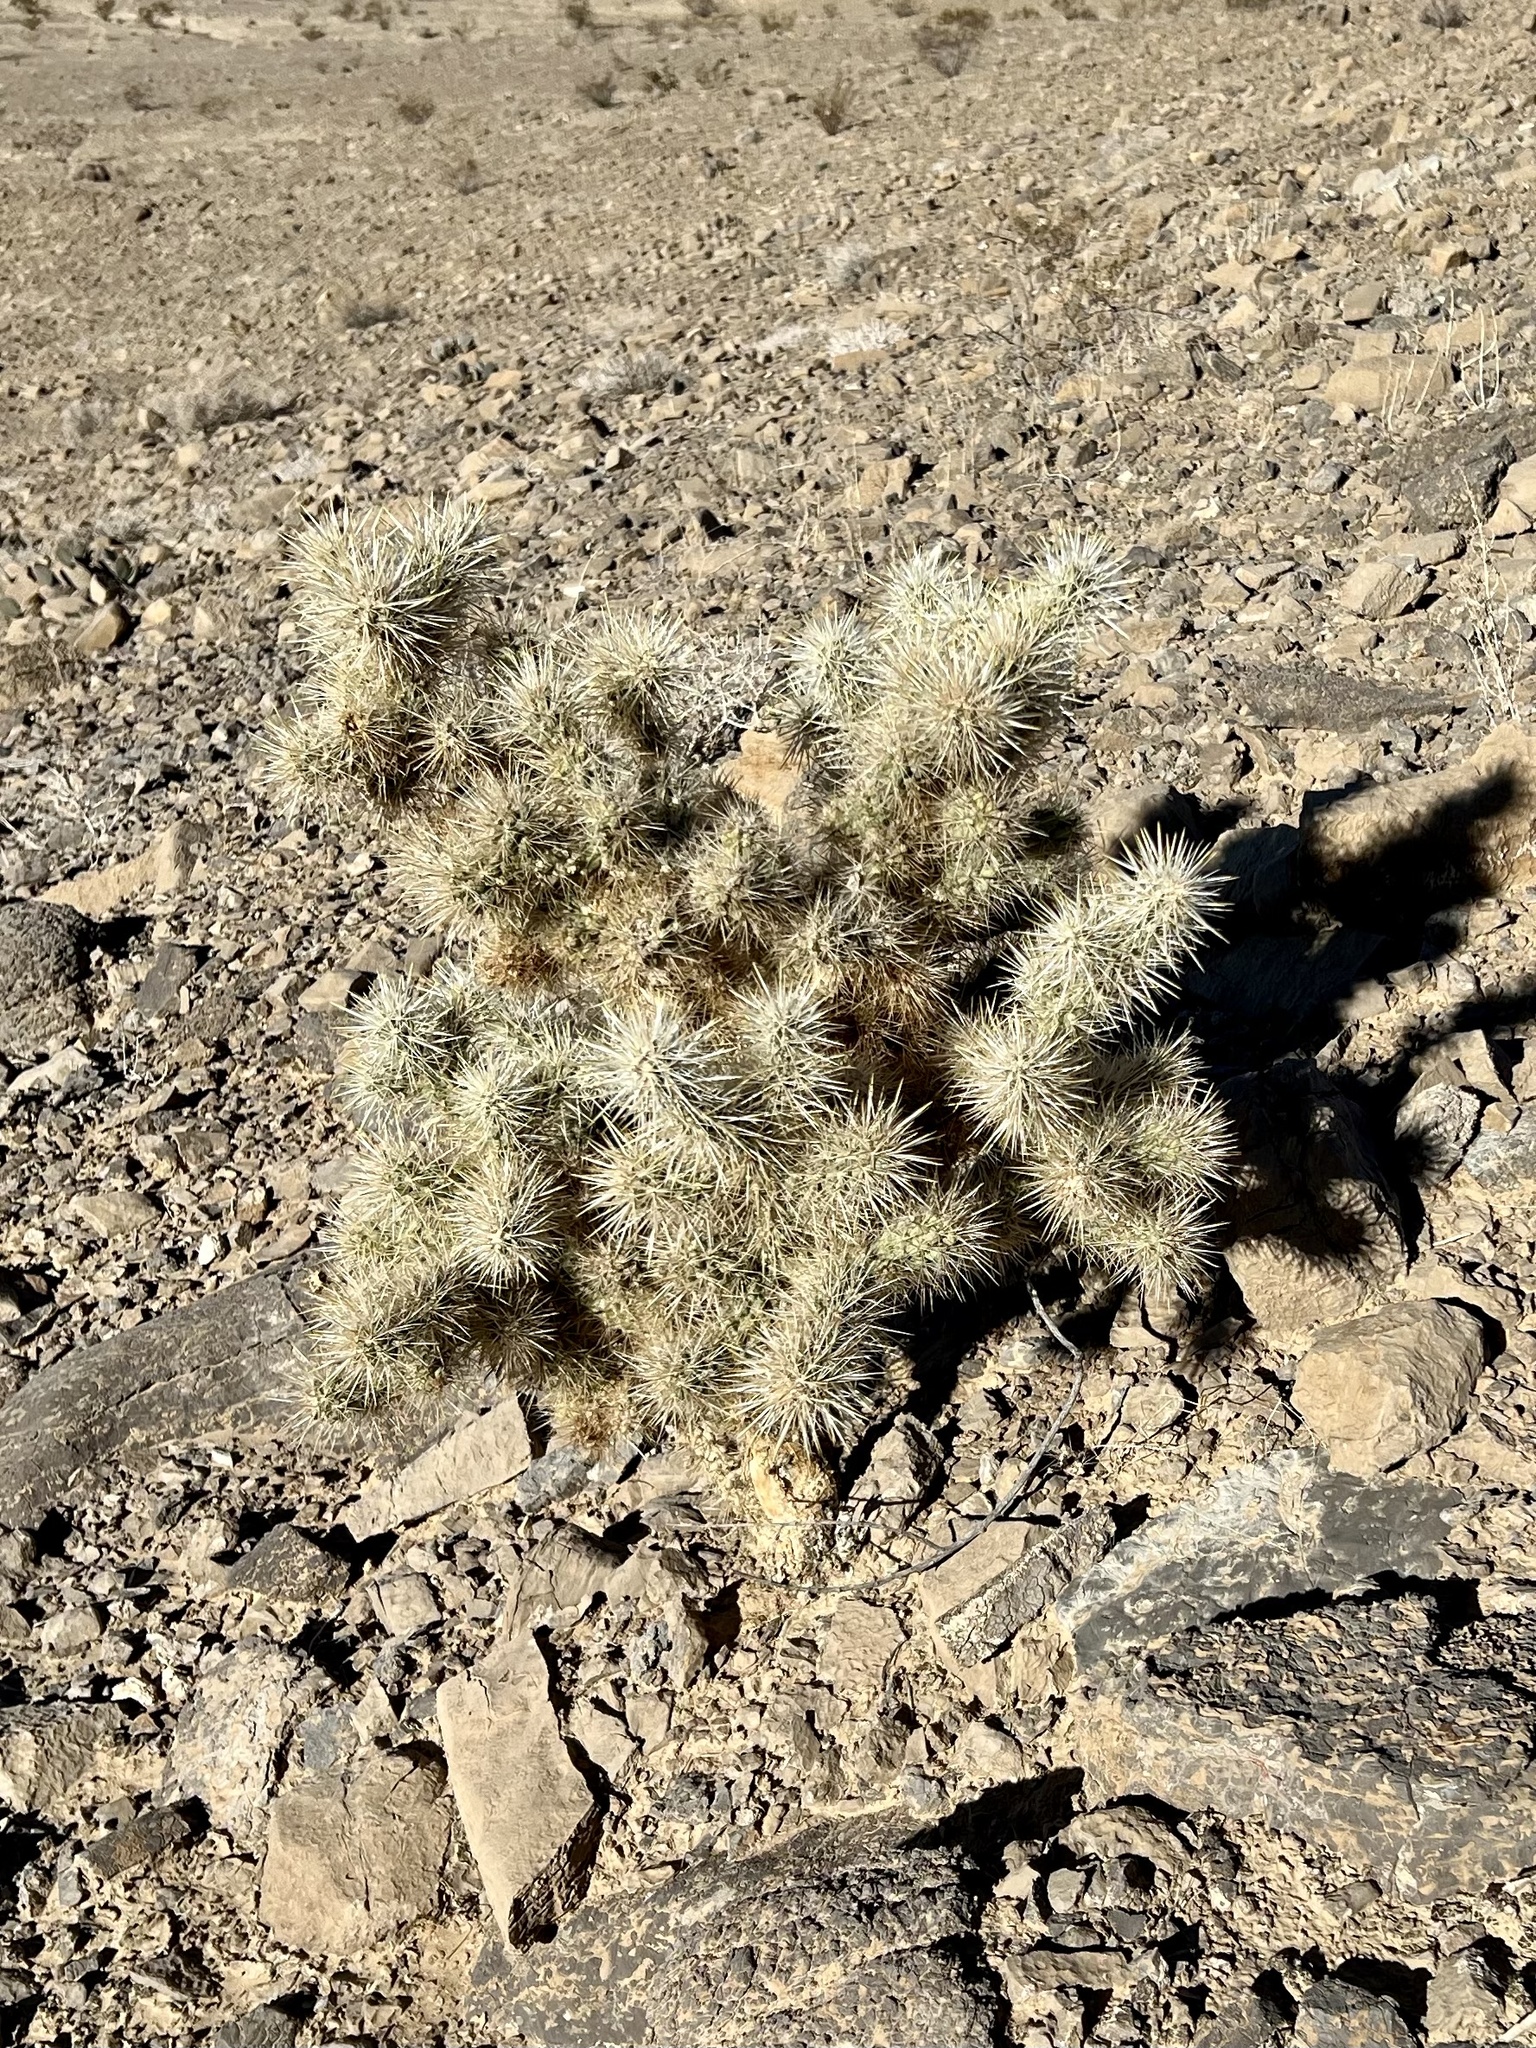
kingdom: Plantae
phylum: Tracheophyta
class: Magnoliopsida
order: Caryophyllales
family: Cactaceae
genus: Cylindropuntia
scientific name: Cylindropuntia echinocarpa
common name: Ground cholla
